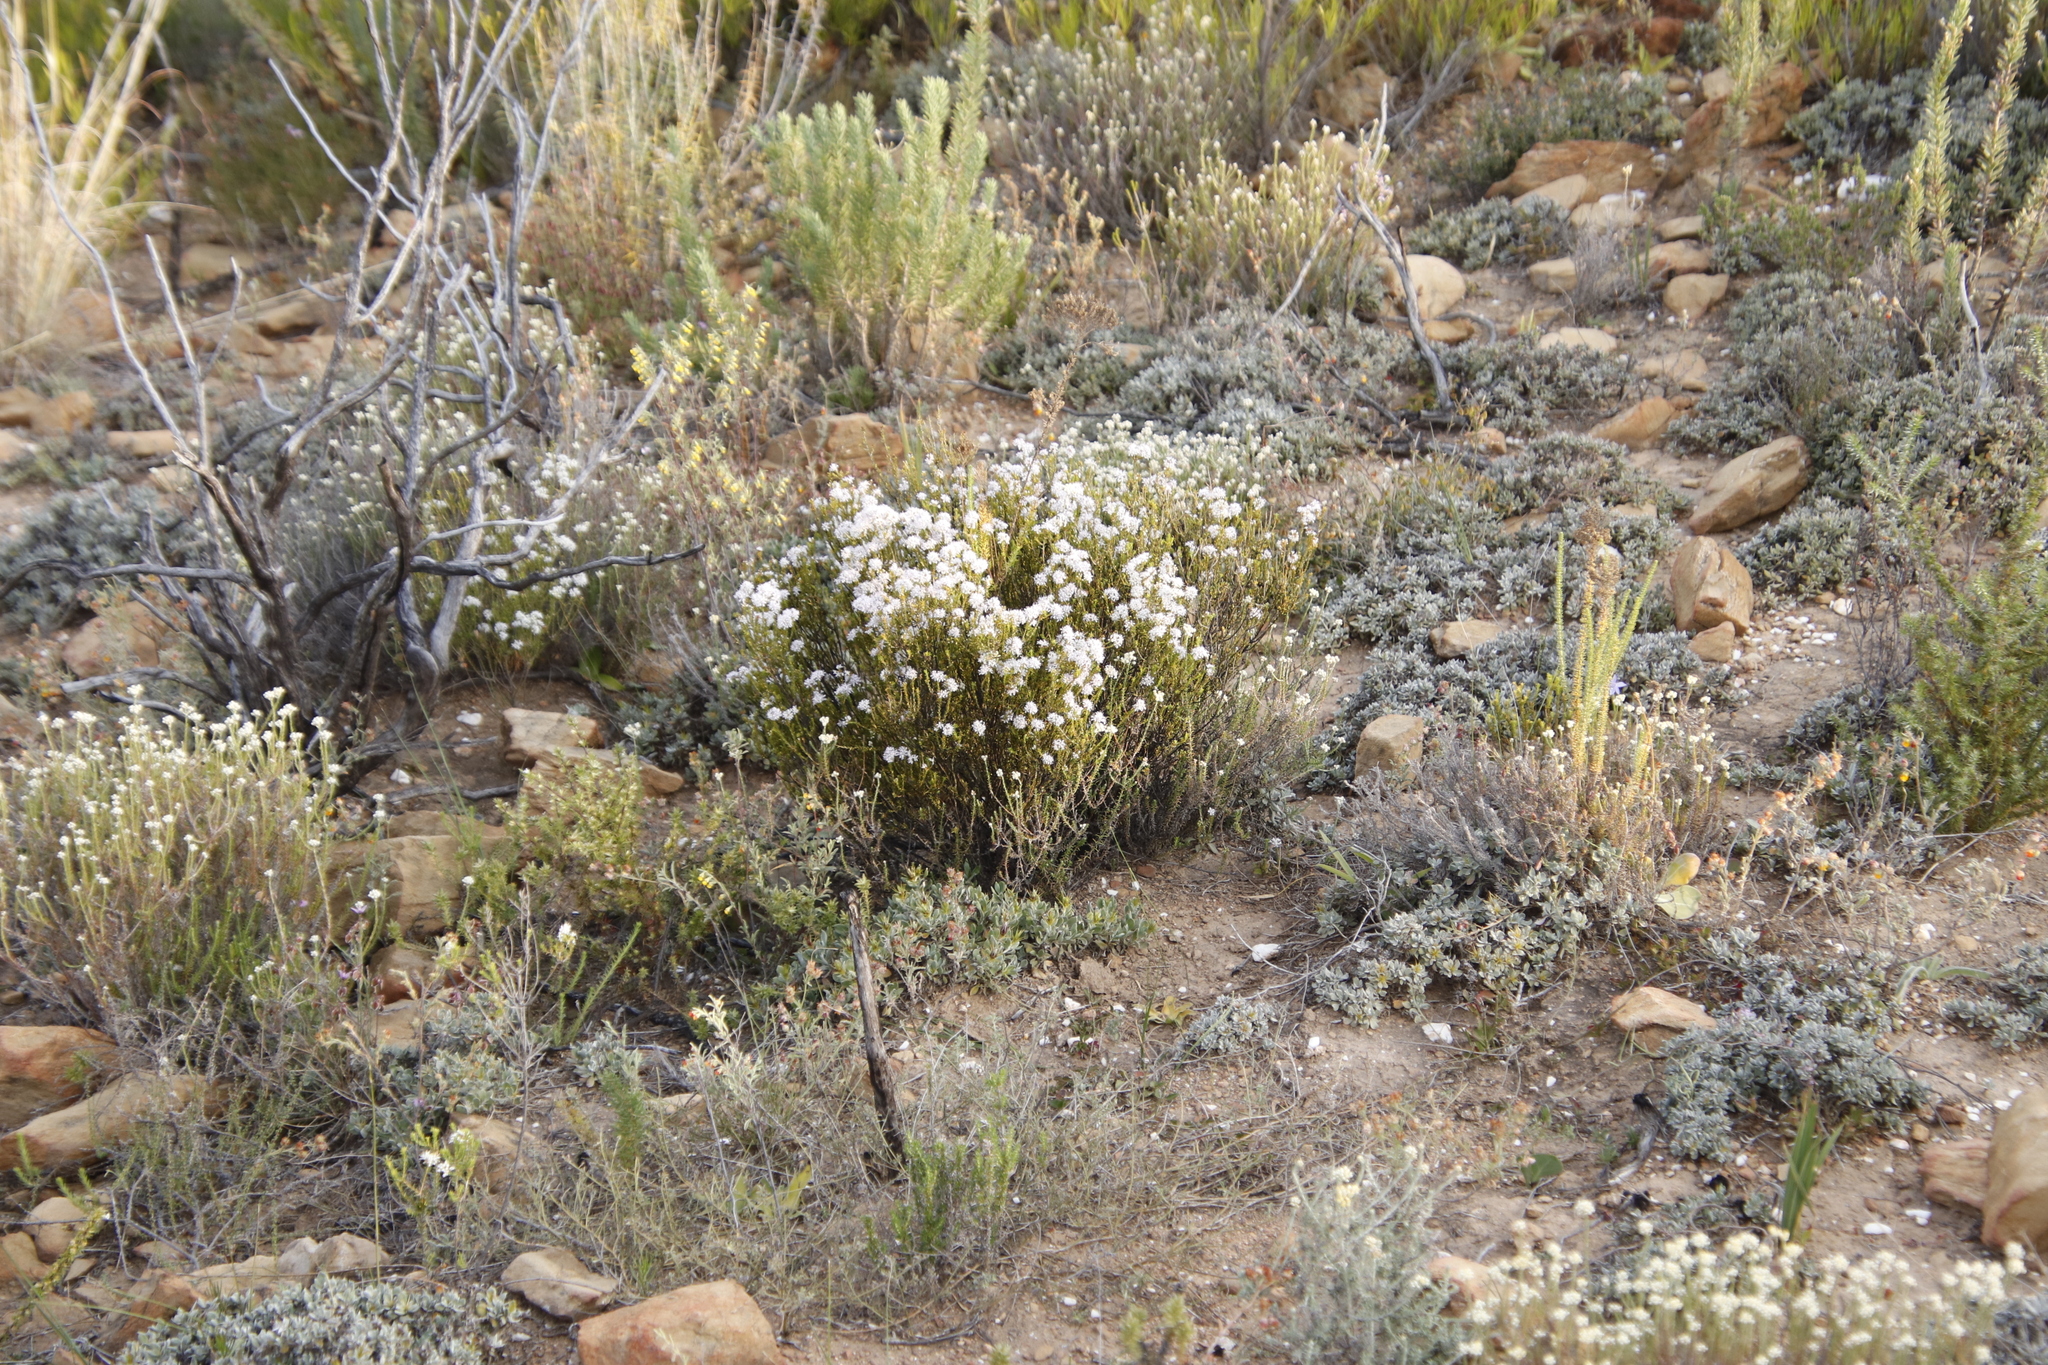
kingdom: Plantae
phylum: Tracheophyta
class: Magnoliopsida
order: Sapindales
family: Rutaceae
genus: Agathosma
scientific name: Agathosma capensis
